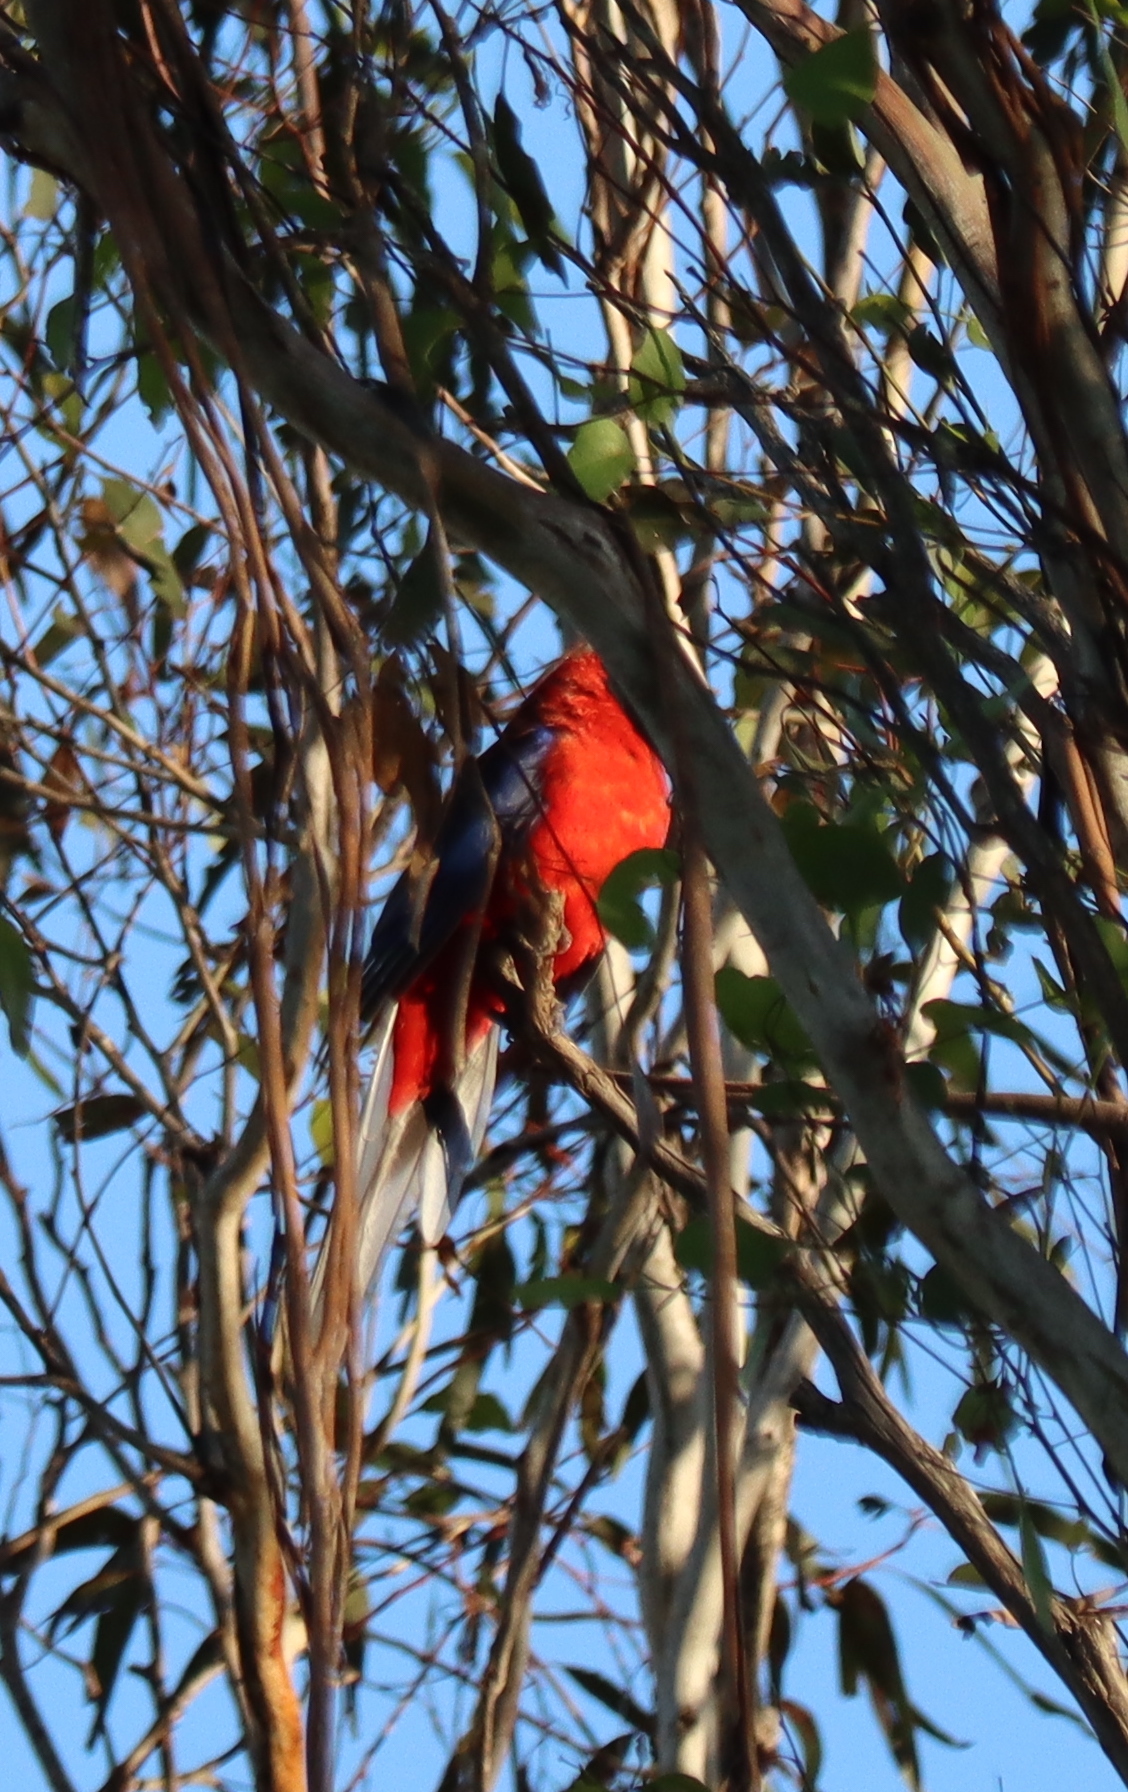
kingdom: Animalia
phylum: Chordata
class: Aves
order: Psittaciformes
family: Psittacidae
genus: Platycercus
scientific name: Platycercus elegans
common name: Crimson rosella
